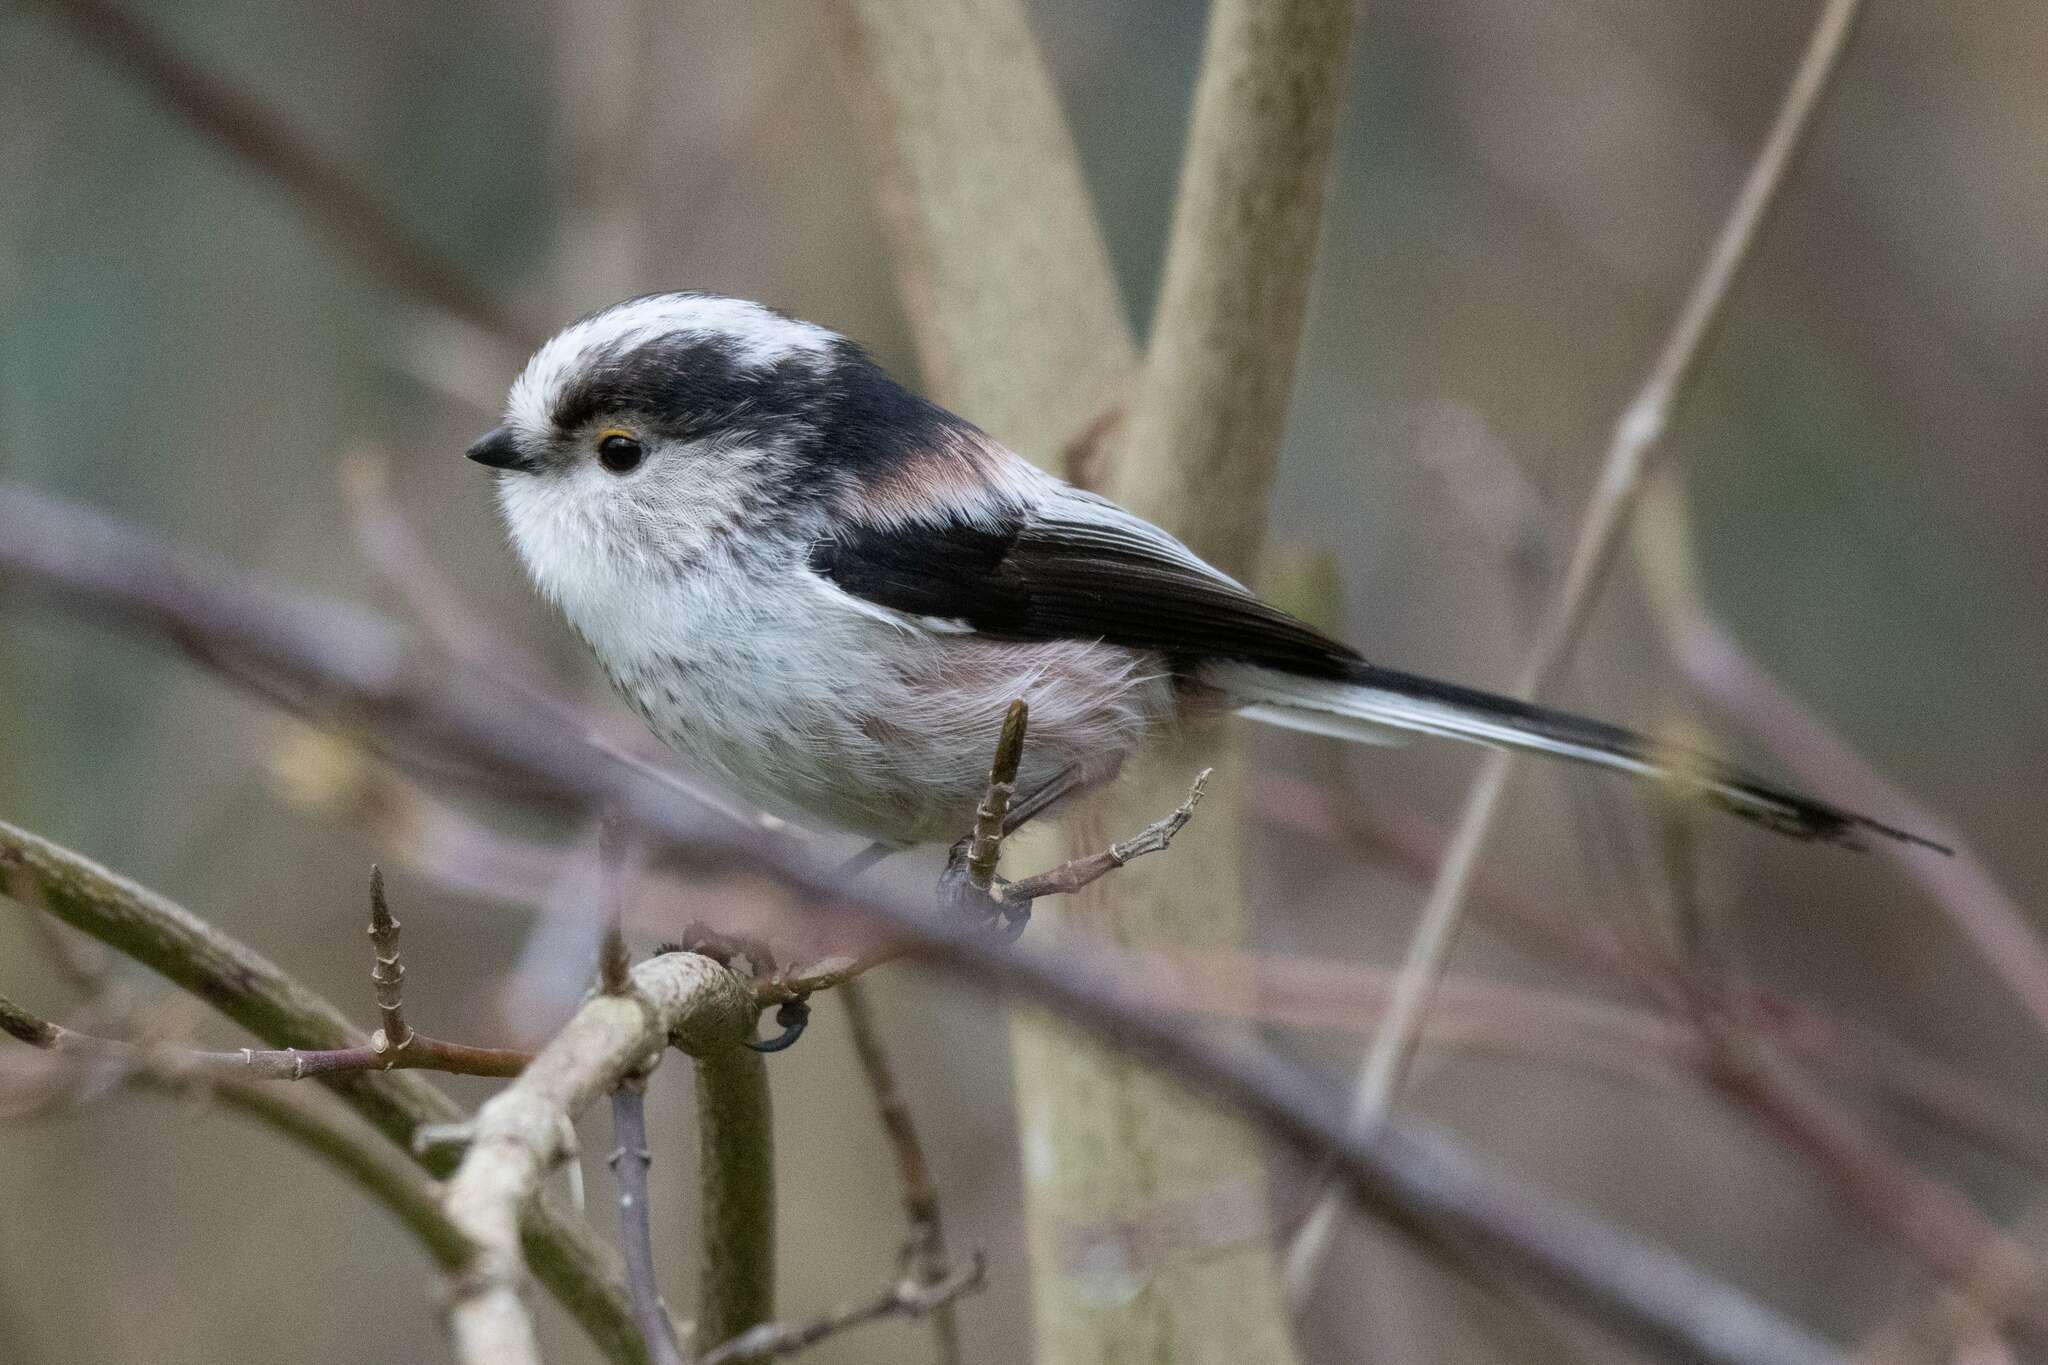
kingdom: Animalia
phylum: Chordata
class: Aves
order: Passeriformes
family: Aegithalidae
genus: Aegithalos
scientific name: Aegithalos caudatus
